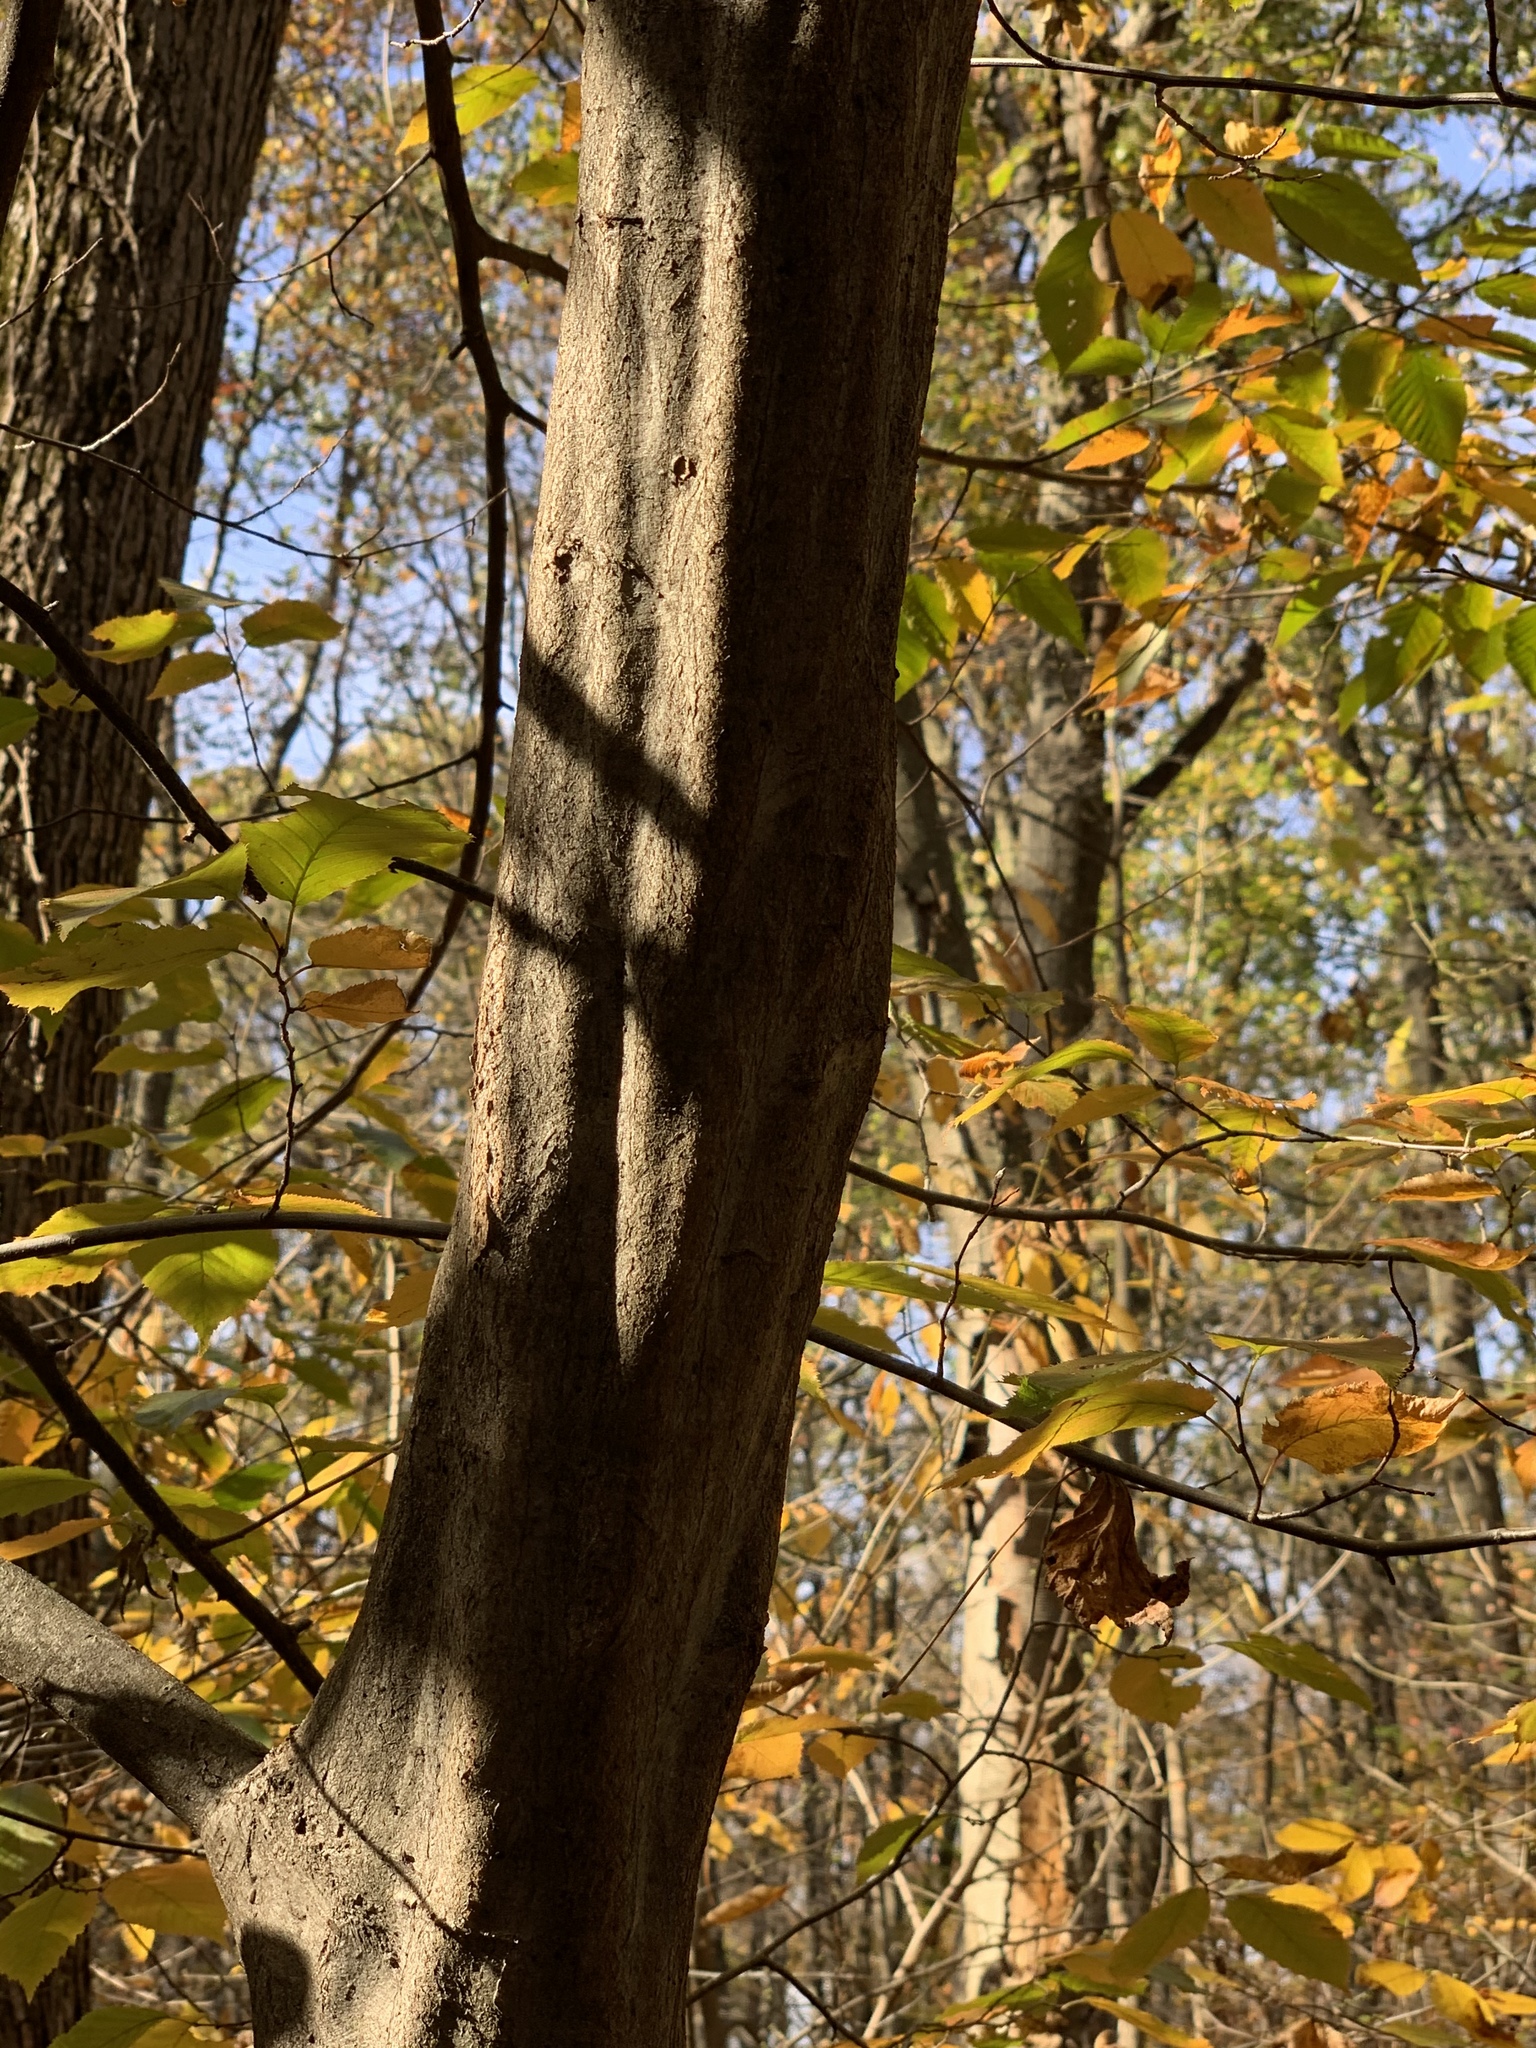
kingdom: Plantae
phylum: Tracheophyta
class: Magnoliopsida
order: Fagales
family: Betulaceae
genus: Carpinus
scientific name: Carpinus caroliniana
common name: American hornbeam
